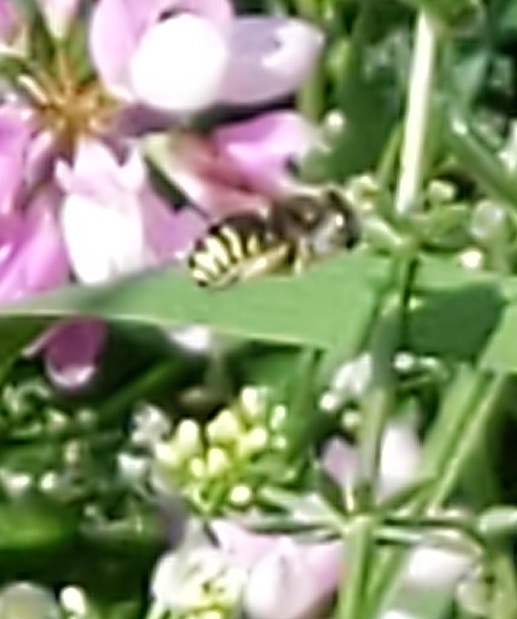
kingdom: Animalia
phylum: Arthropoda
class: Insecta
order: Hymenoptera
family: Megachilidae
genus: Anthidium
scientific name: Anthidium
